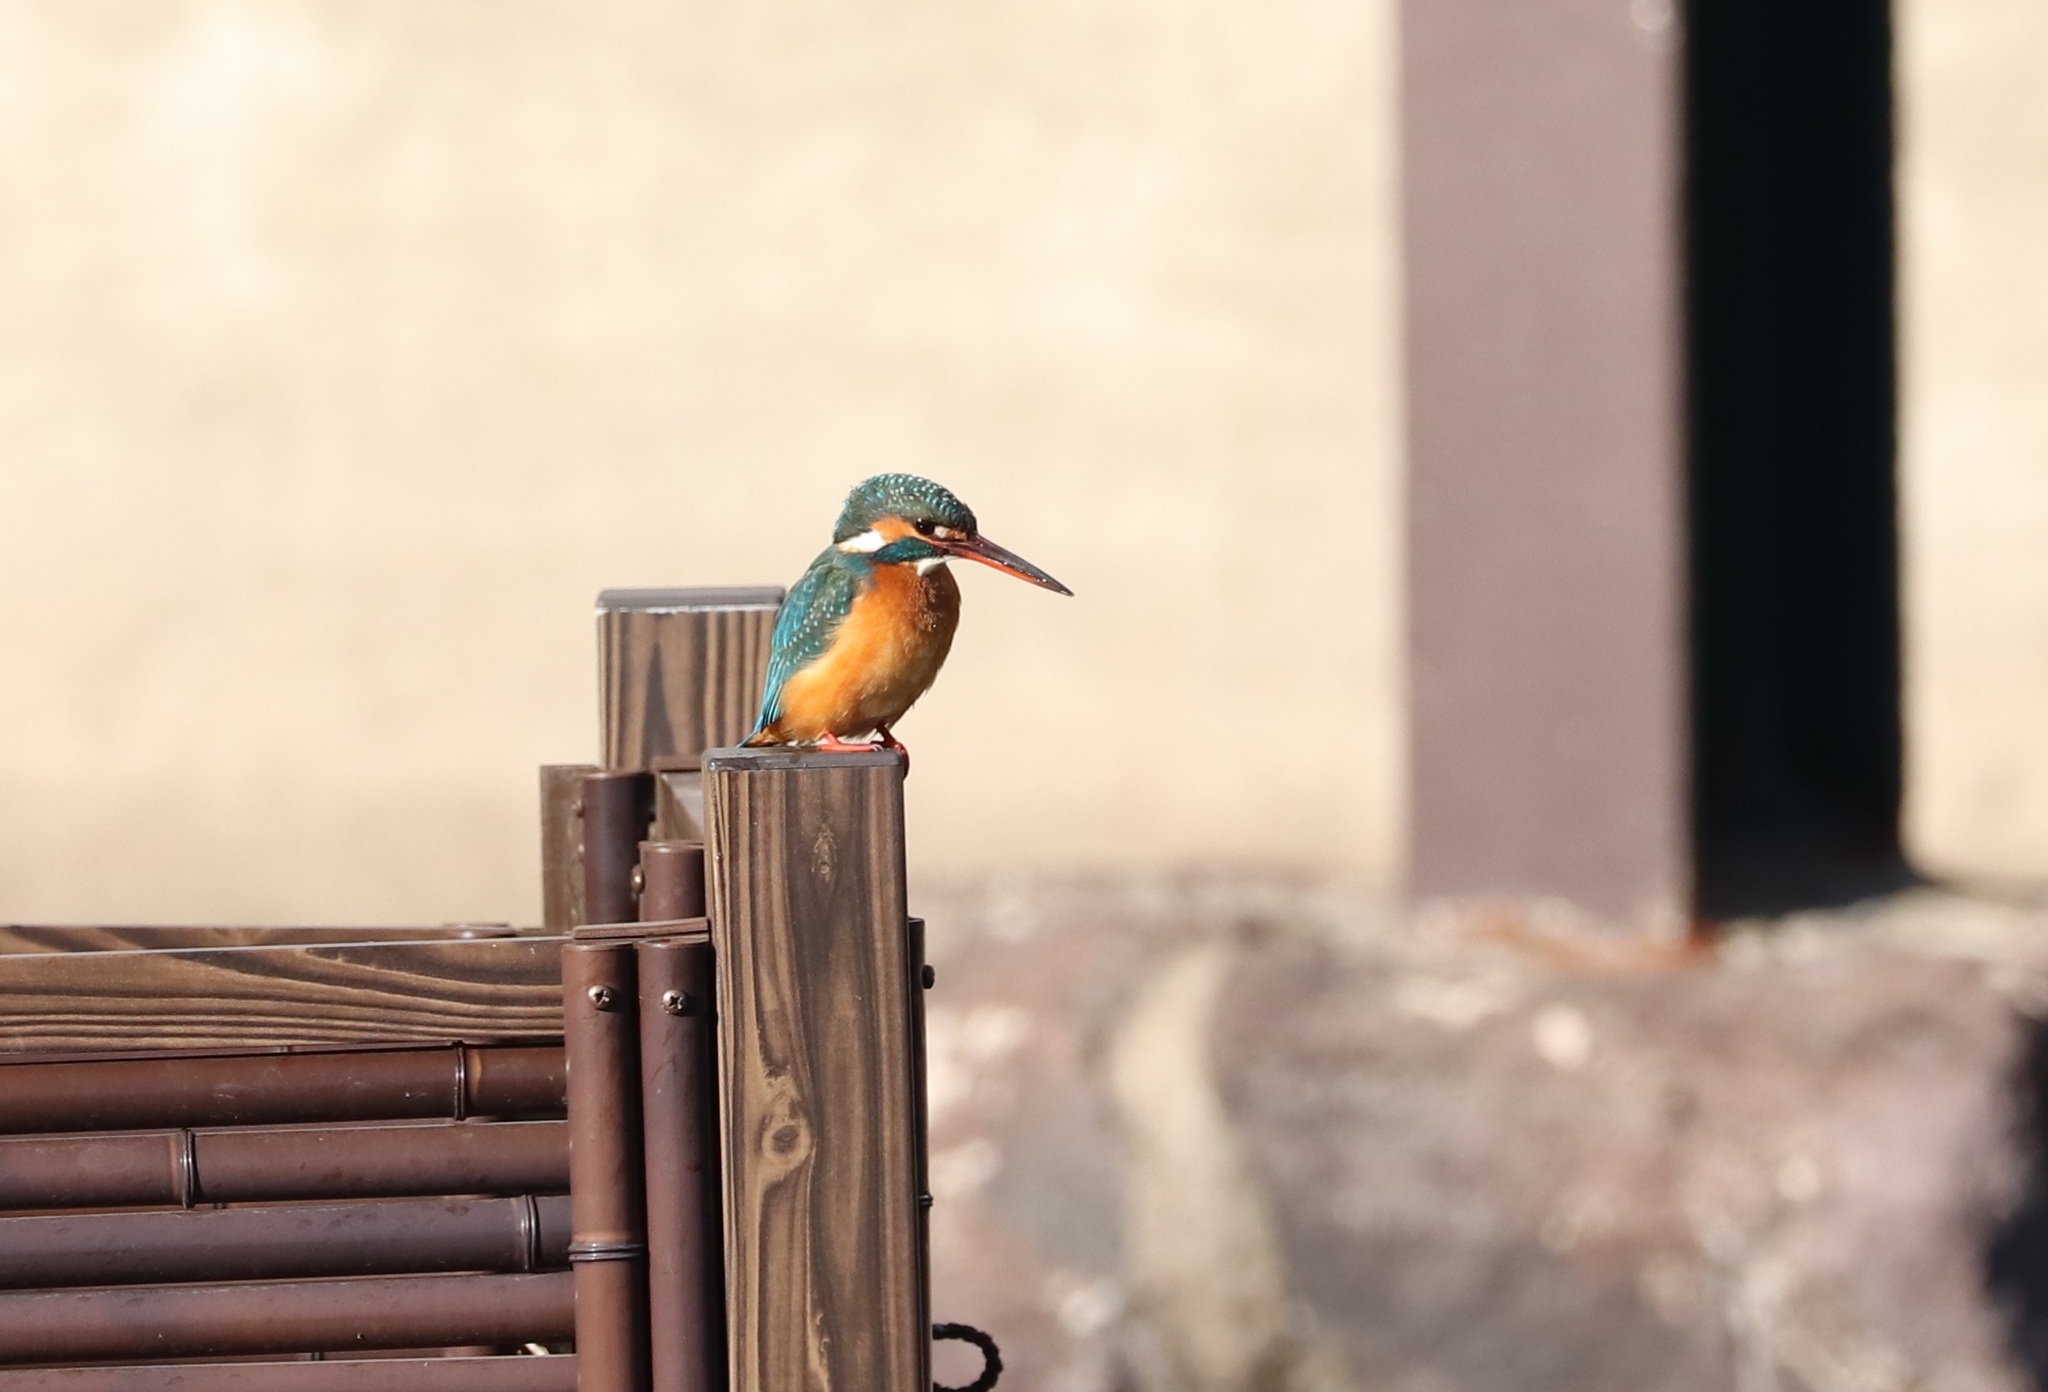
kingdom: Animalia
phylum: Chordata
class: Aves
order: Coraciiformes
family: Alcedinidae
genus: Alcedo
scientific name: Alcedo atthis
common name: Common kingfisher
